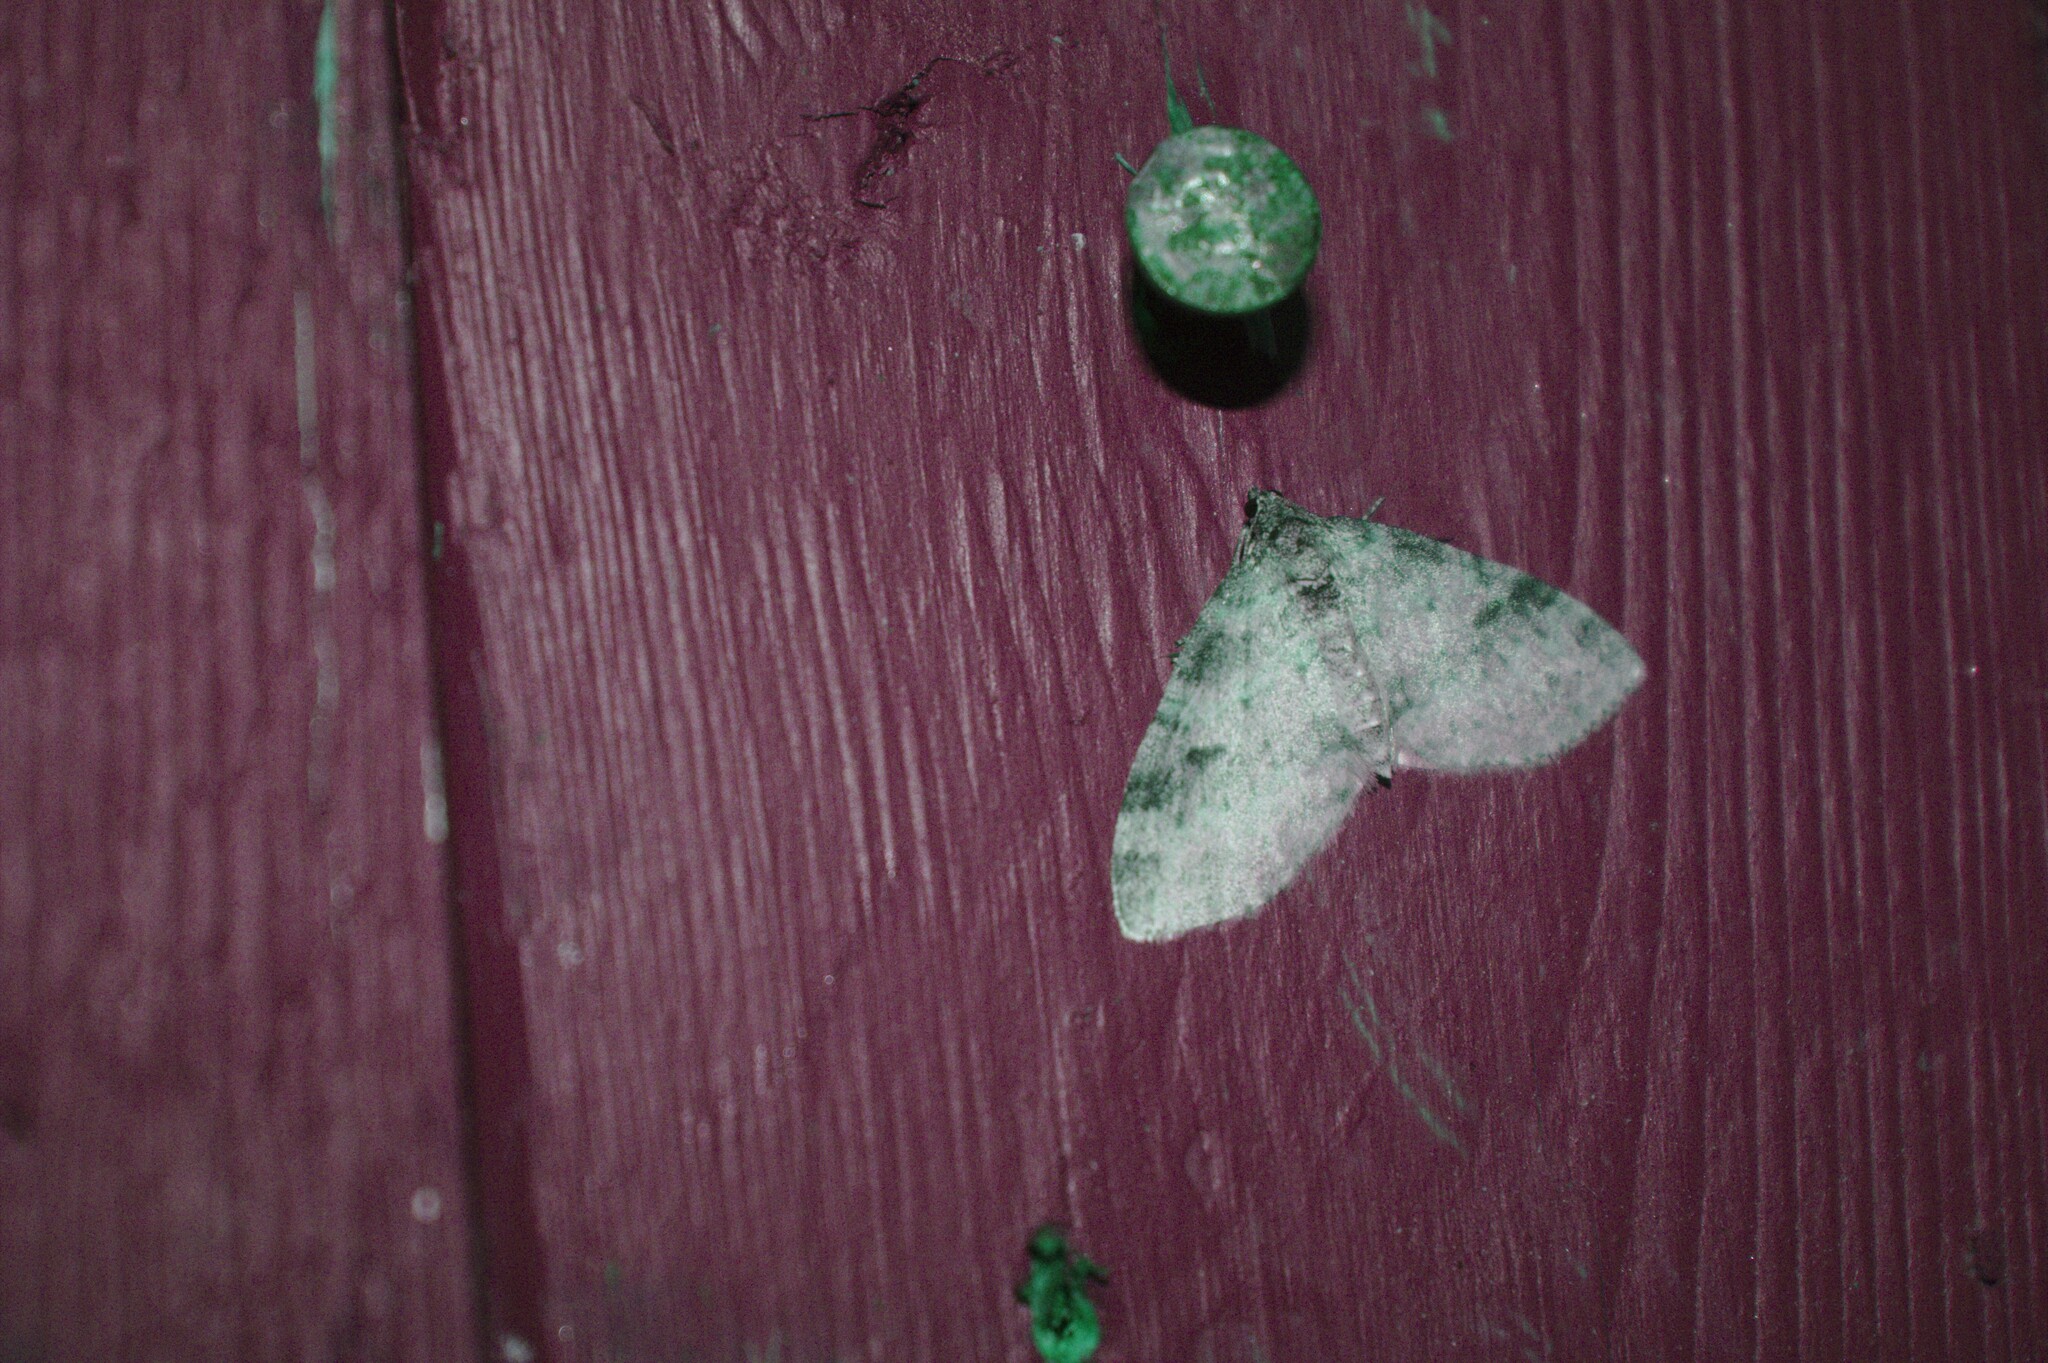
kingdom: Animalia
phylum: Arthropoda
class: Insecta
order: Lepidoptera
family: Geometridae
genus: Lobophora
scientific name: Lobophora nivigerata
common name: Powdered bigwing
